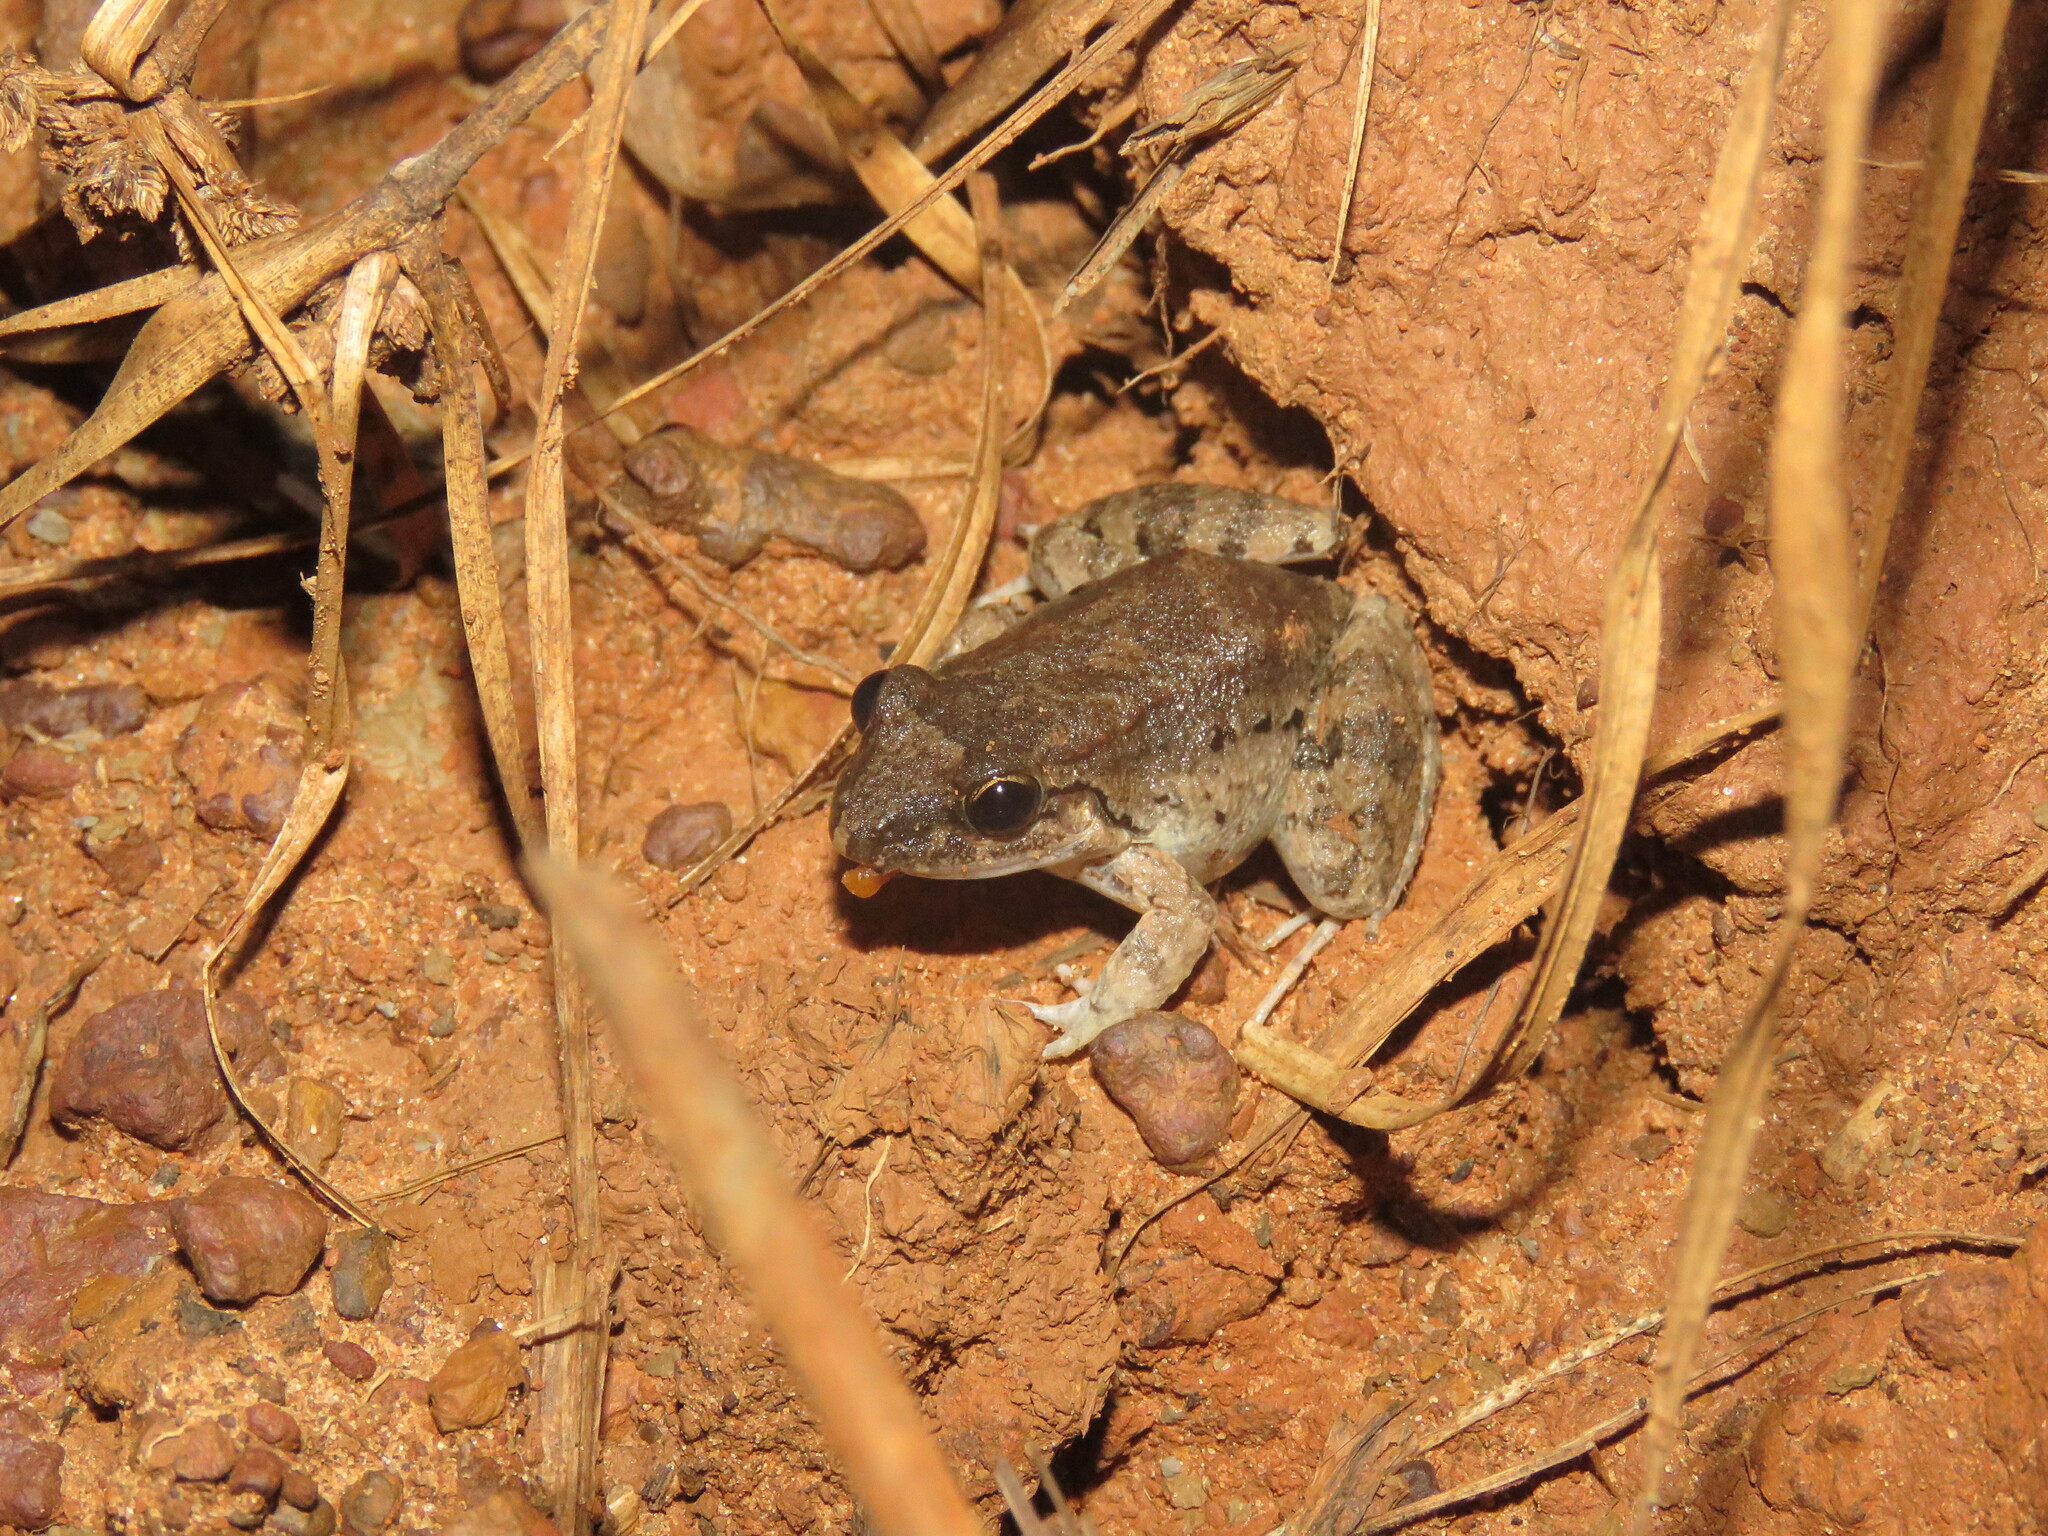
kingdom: Animalia
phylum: Chordata
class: Amphibia
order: Anura
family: Leptodactylidae
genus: Leptodactylus
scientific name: Leptodactylus leptodactyloides
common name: Common thin-toed frog
